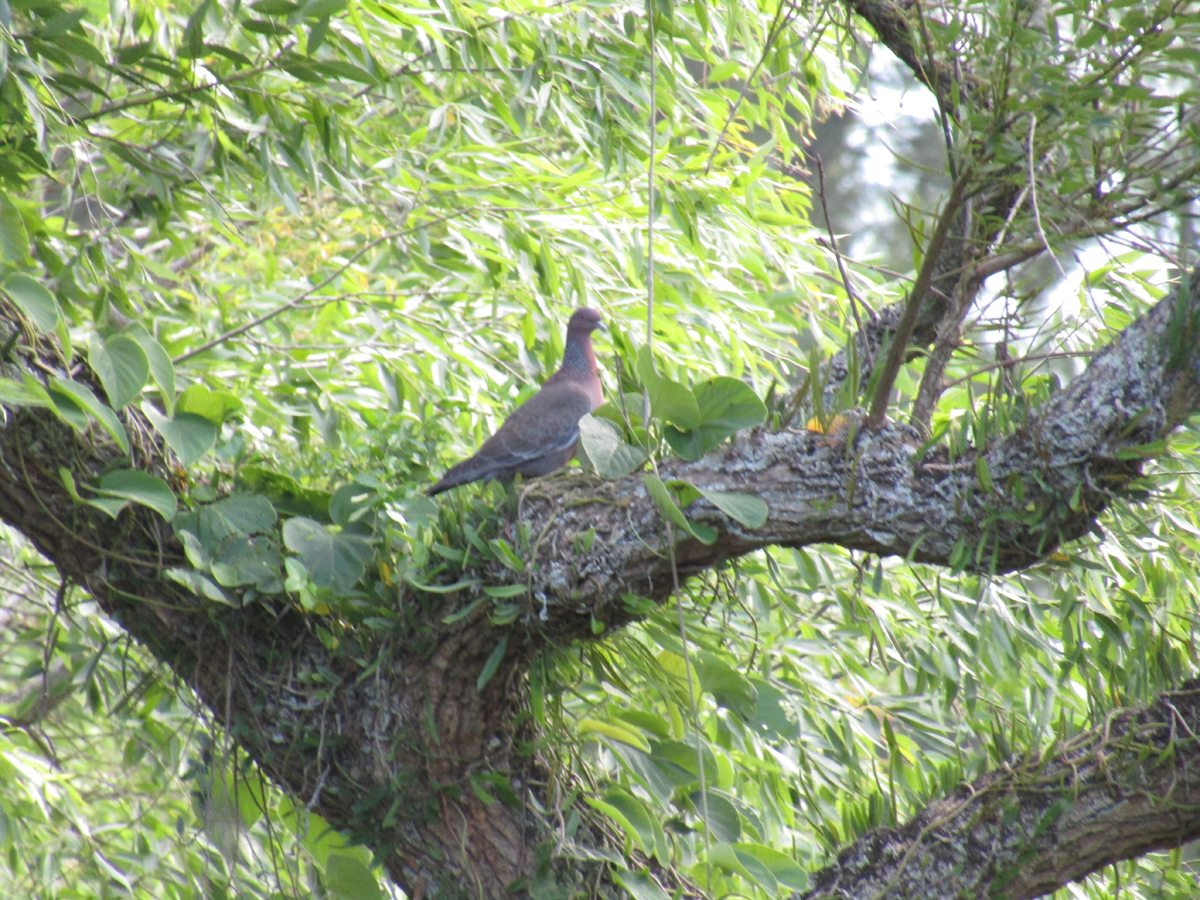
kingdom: Animalia
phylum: Chordata
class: Aves
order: Columbiformes
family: Columbidae
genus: Patagioenas
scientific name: Patagioenas picazuro
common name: Picazuro pigeon
